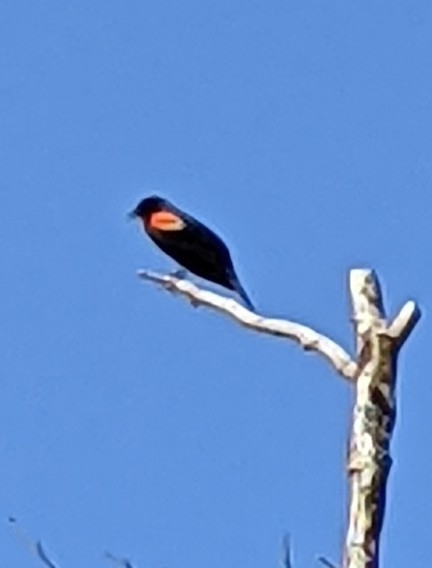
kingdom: Animalia
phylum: Chordata
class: Aves
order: Passeriformes
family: Icteridae
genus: Agelaius
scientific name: Agelaius phoeniceus
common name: Red-winged blackbird
